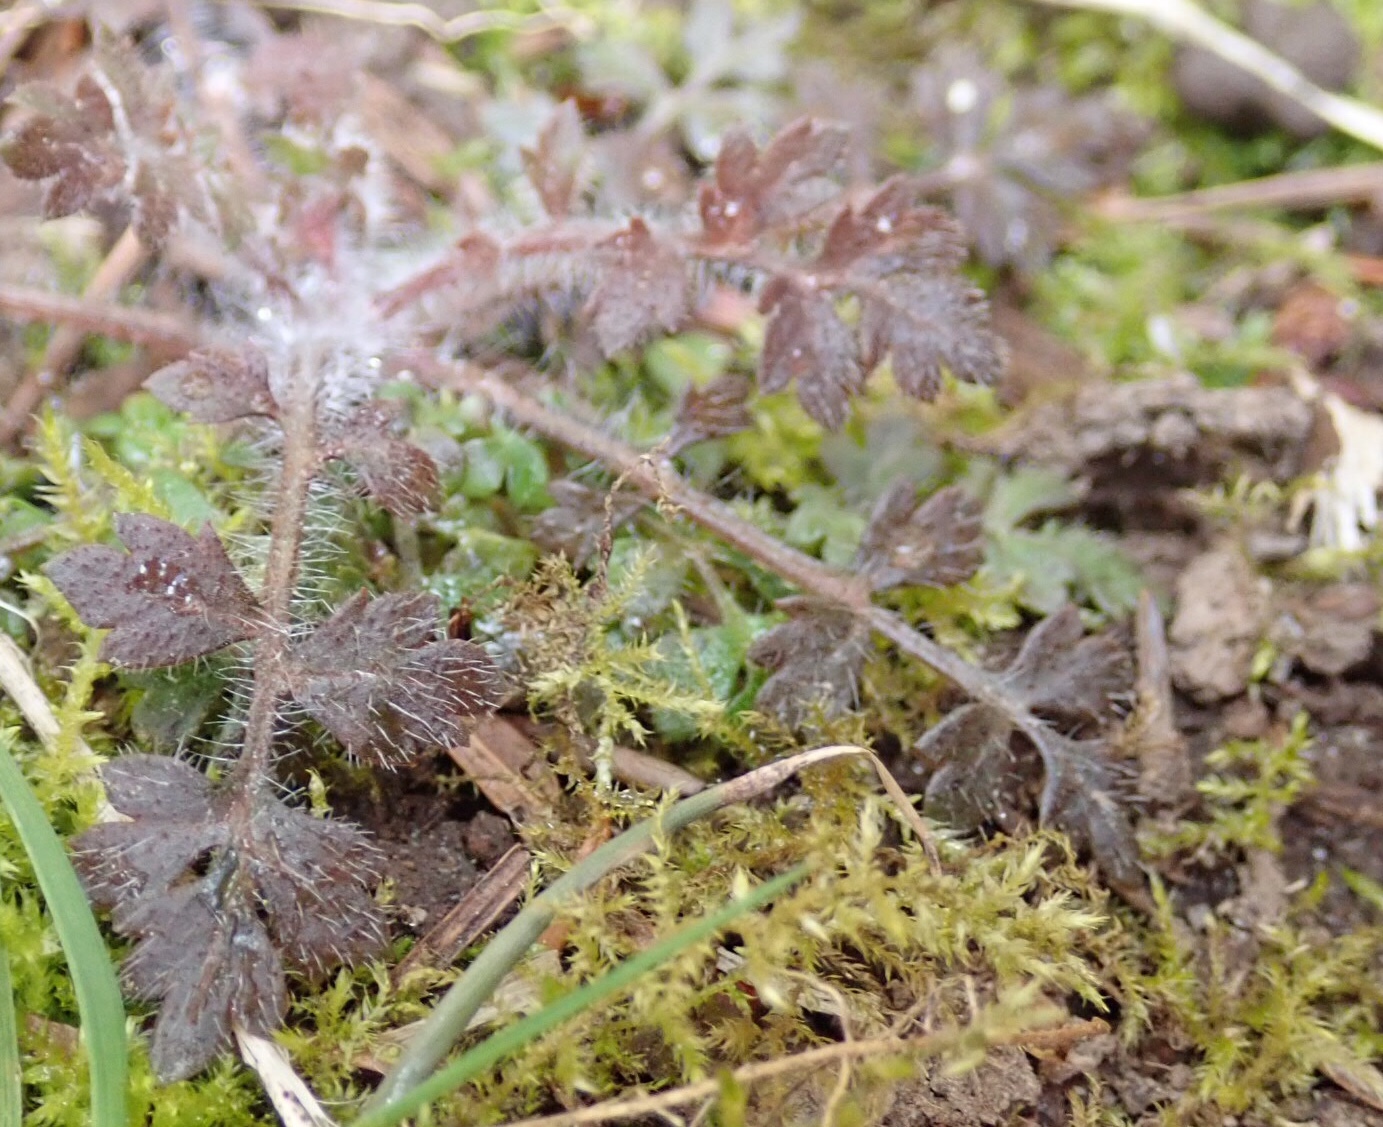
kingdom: Plantae
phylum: Tracheophyta
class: Magnoliopsida
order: Ericales
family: Polemoniaceae
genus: Collomia
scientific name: Collomia heterophylla
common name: Variable-leaved collomia
